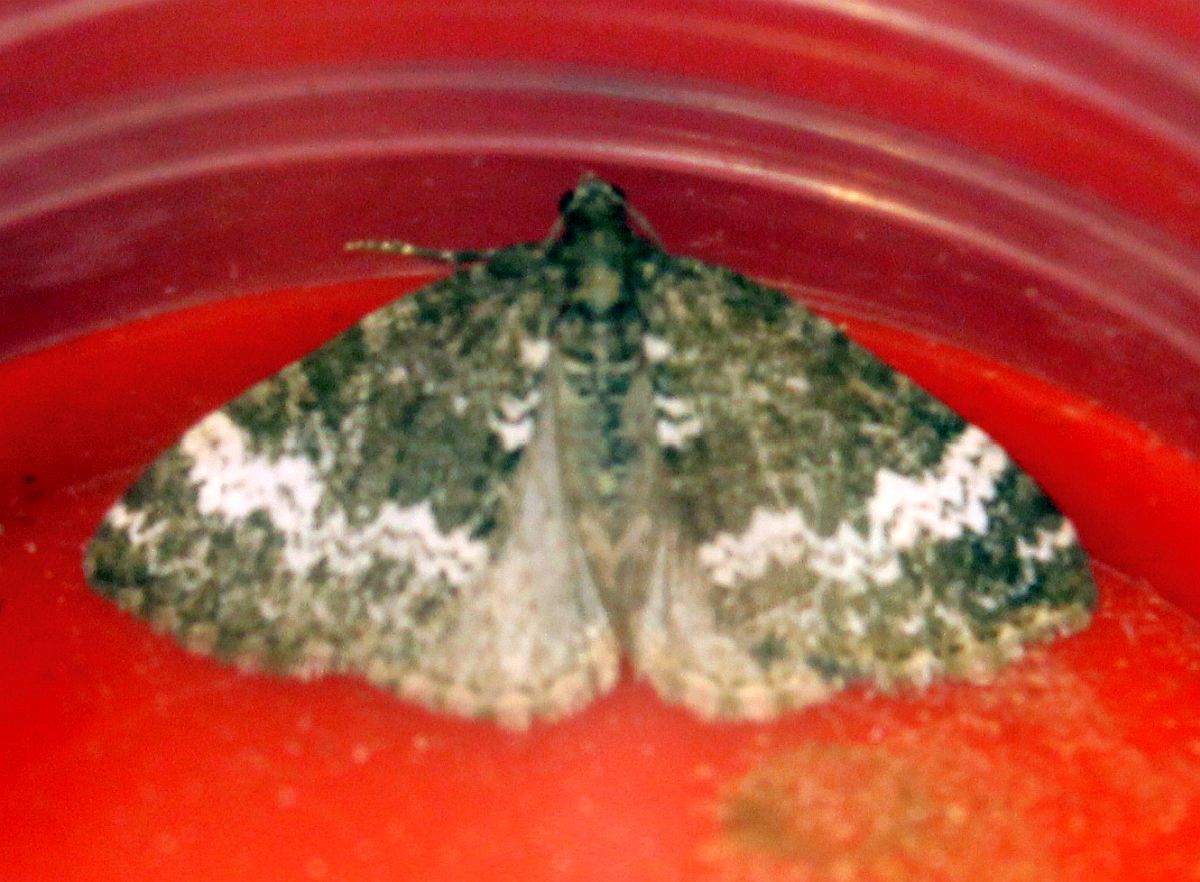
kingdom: Animalia
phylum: Arthropoda
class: Insecta
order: Lepidoptera
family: Geometridae
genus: Perizoma
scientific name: Perizoma alchemillata
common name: Small rivulet
